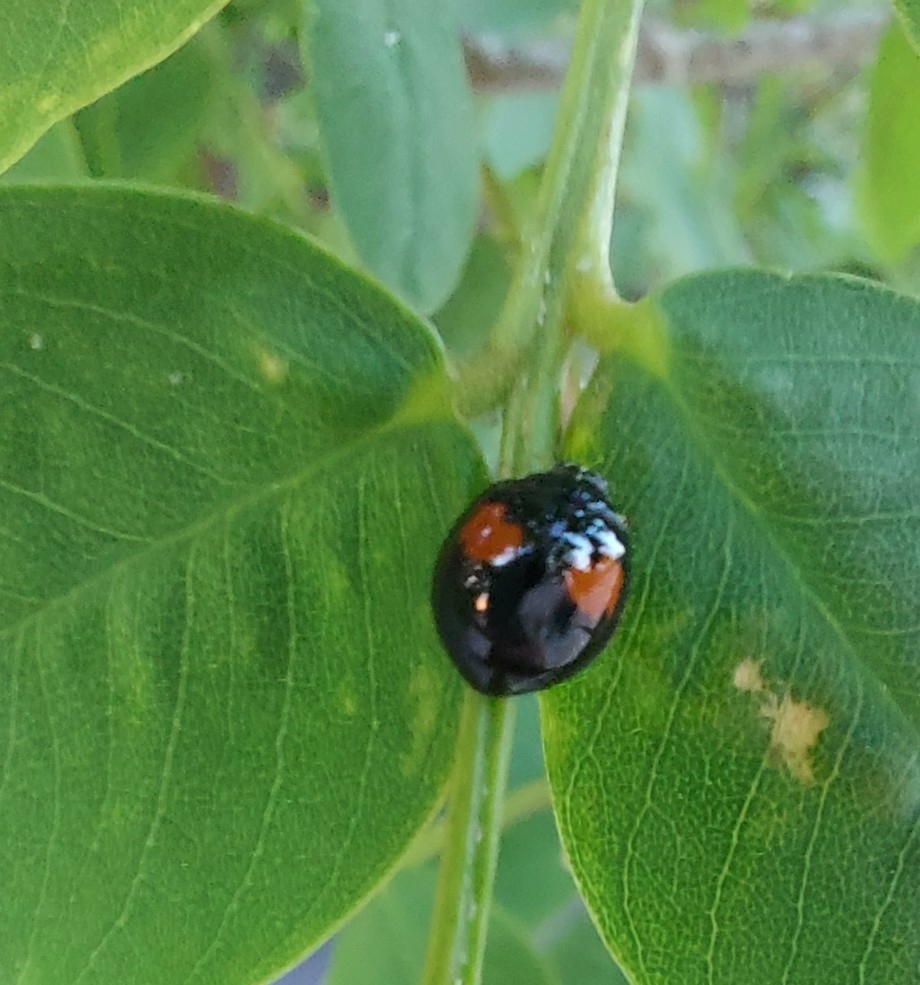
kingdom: Animalia
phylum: Arthropoda
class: Insecta
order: Coleoptera
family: Coccinellidae
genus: Olla
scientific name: Olla v-nigrum
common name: Ashy gray lady beetle
